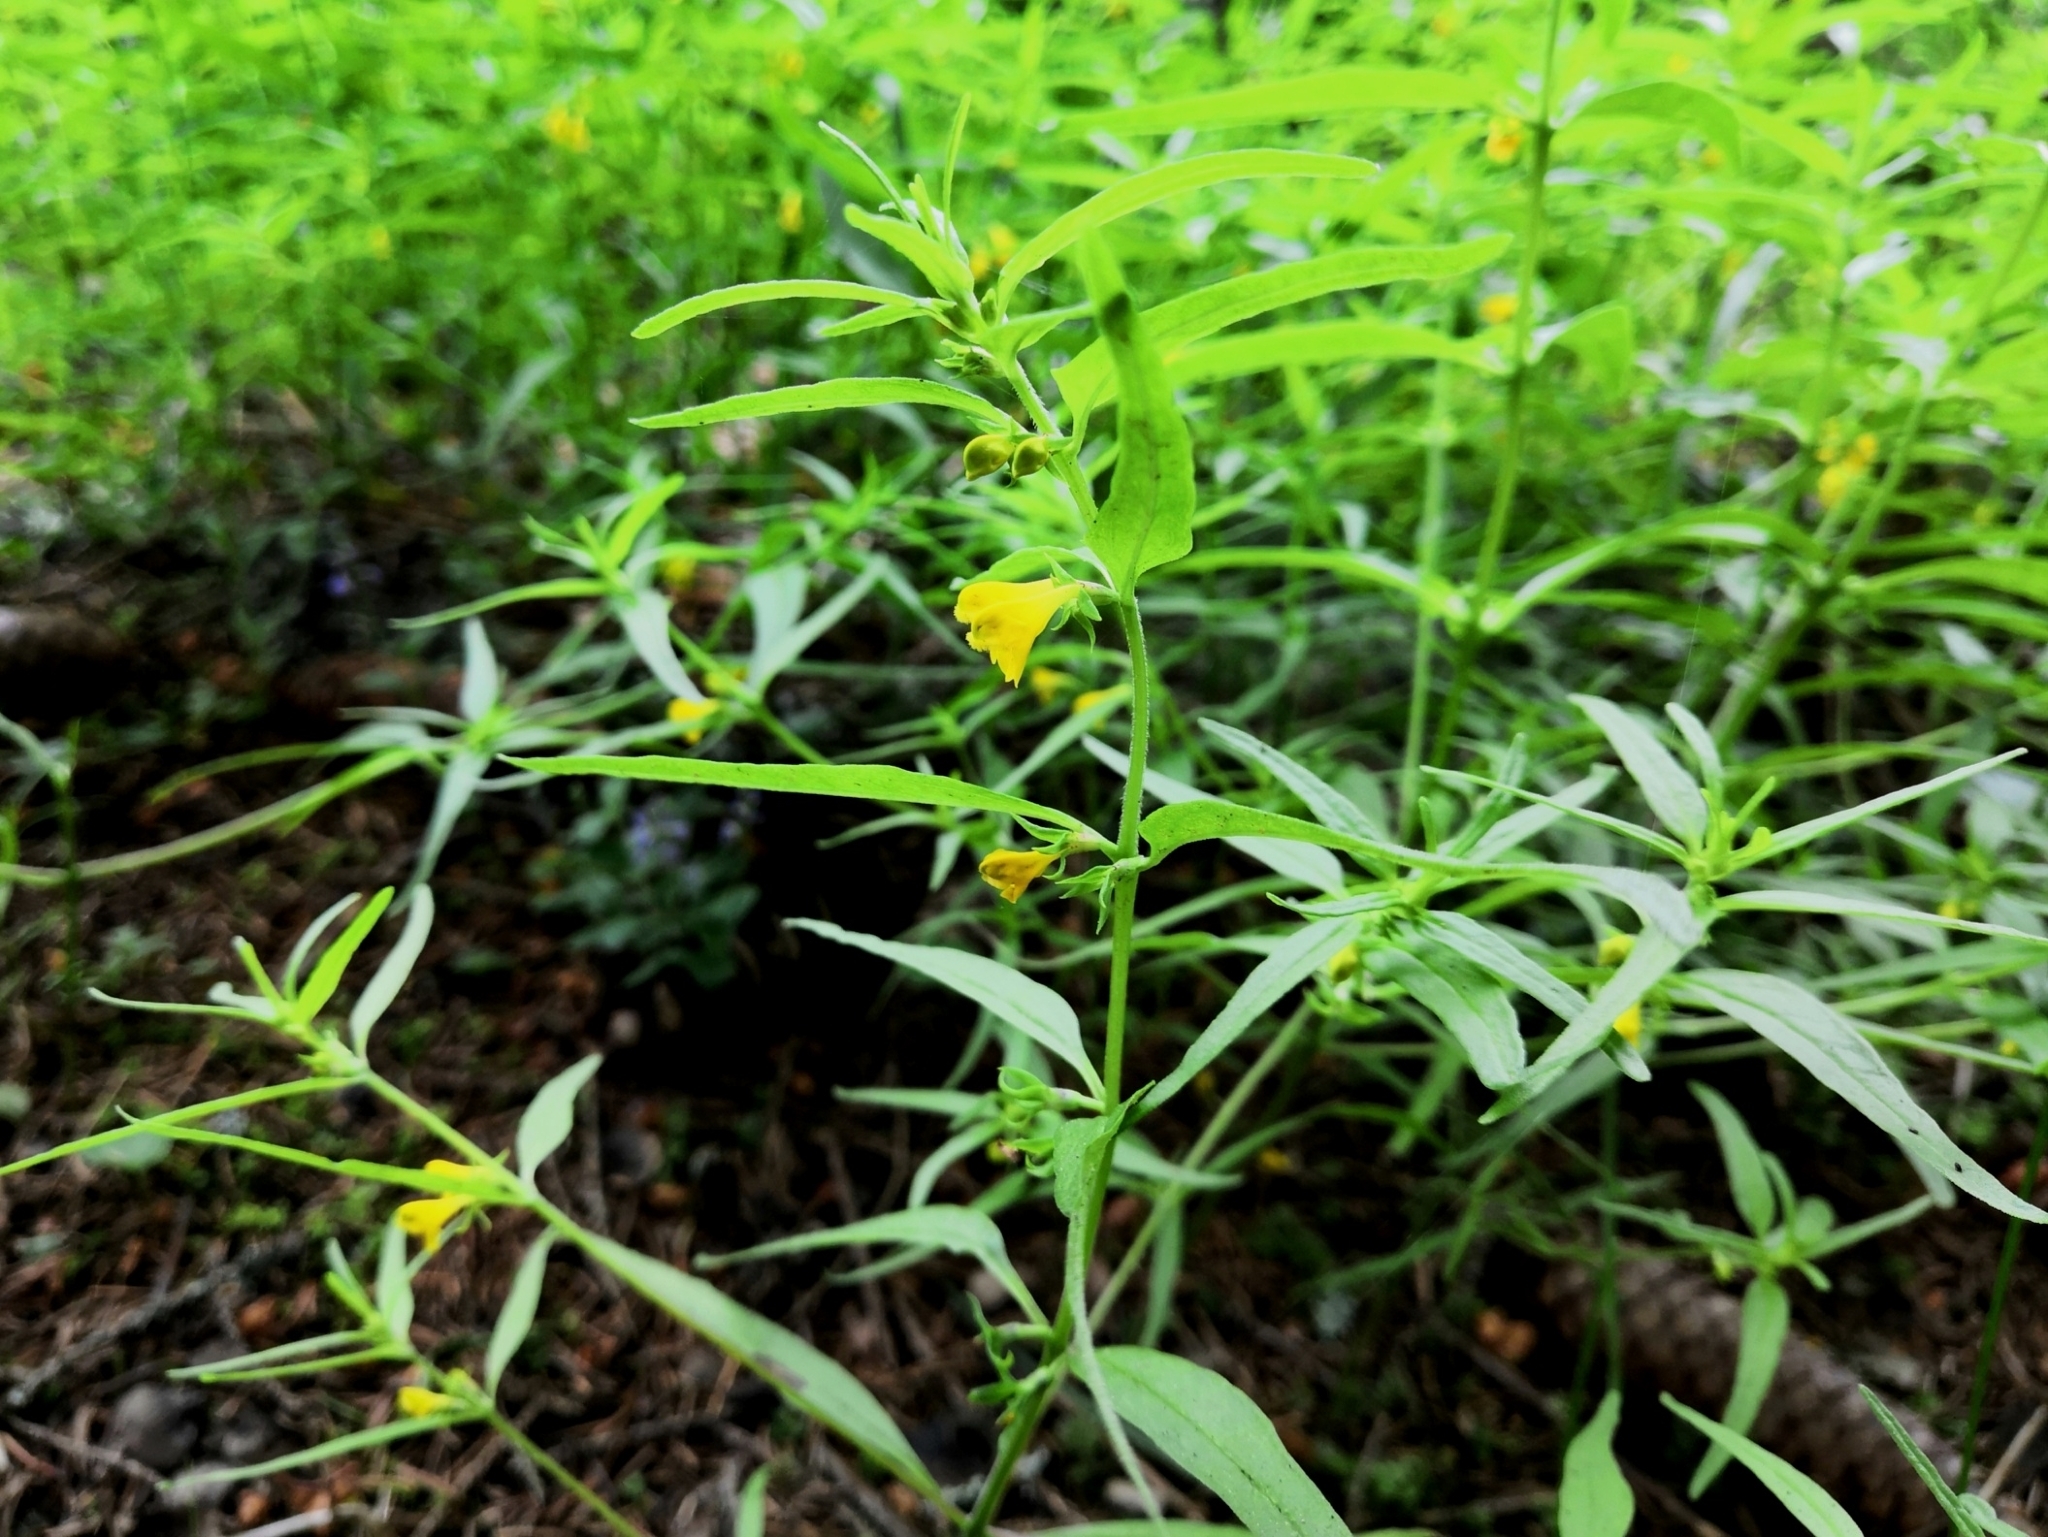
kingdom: Plantae
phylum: Tracheophyta
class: Magnoliopsida
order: Lamiales
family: Orobanchaceae
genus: Melampyrum
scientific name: Melampyrum sylvaticum
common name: Small cow-wheat
